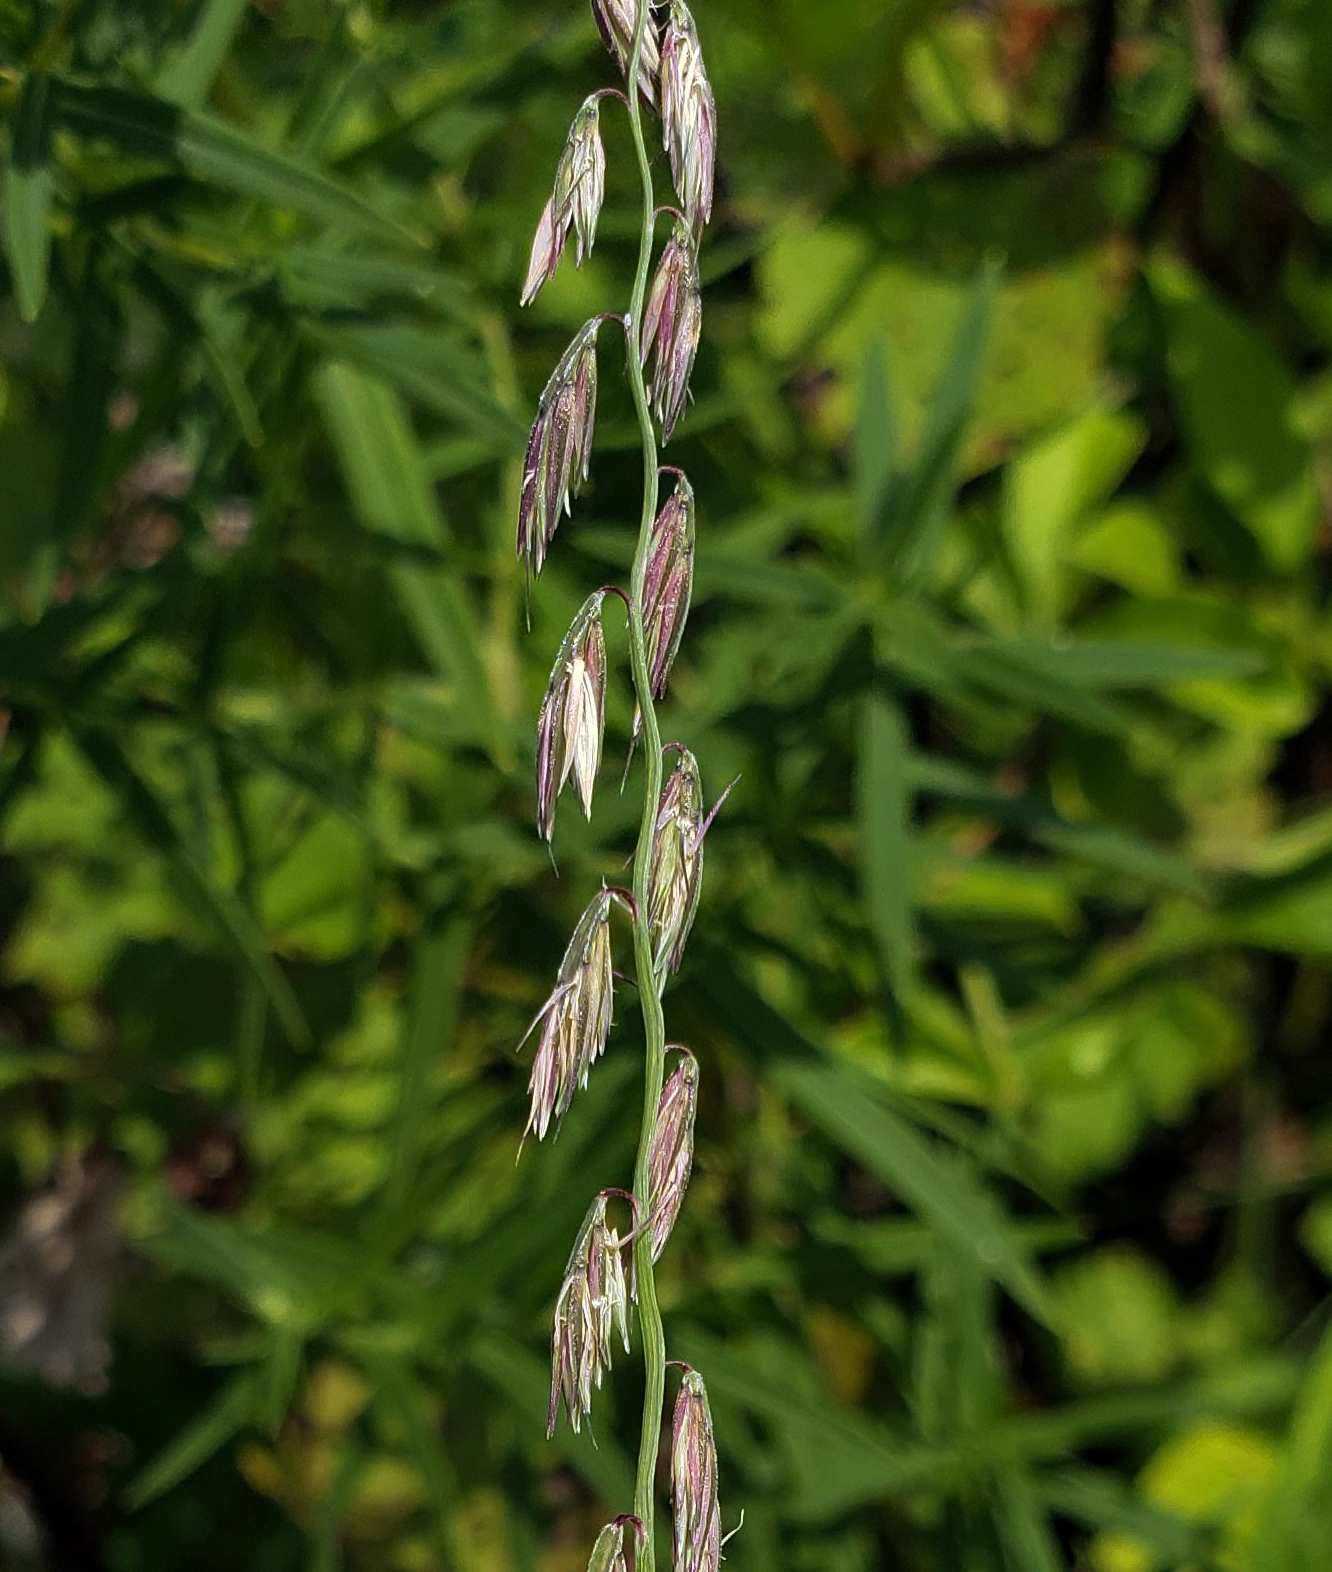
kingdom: Plantae
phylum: Tracheophyta
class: Liliopsida
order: Poales
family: Poaceae
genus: Bouteloua
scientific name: Bouteloua curtipendula
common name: Side-oats grama
